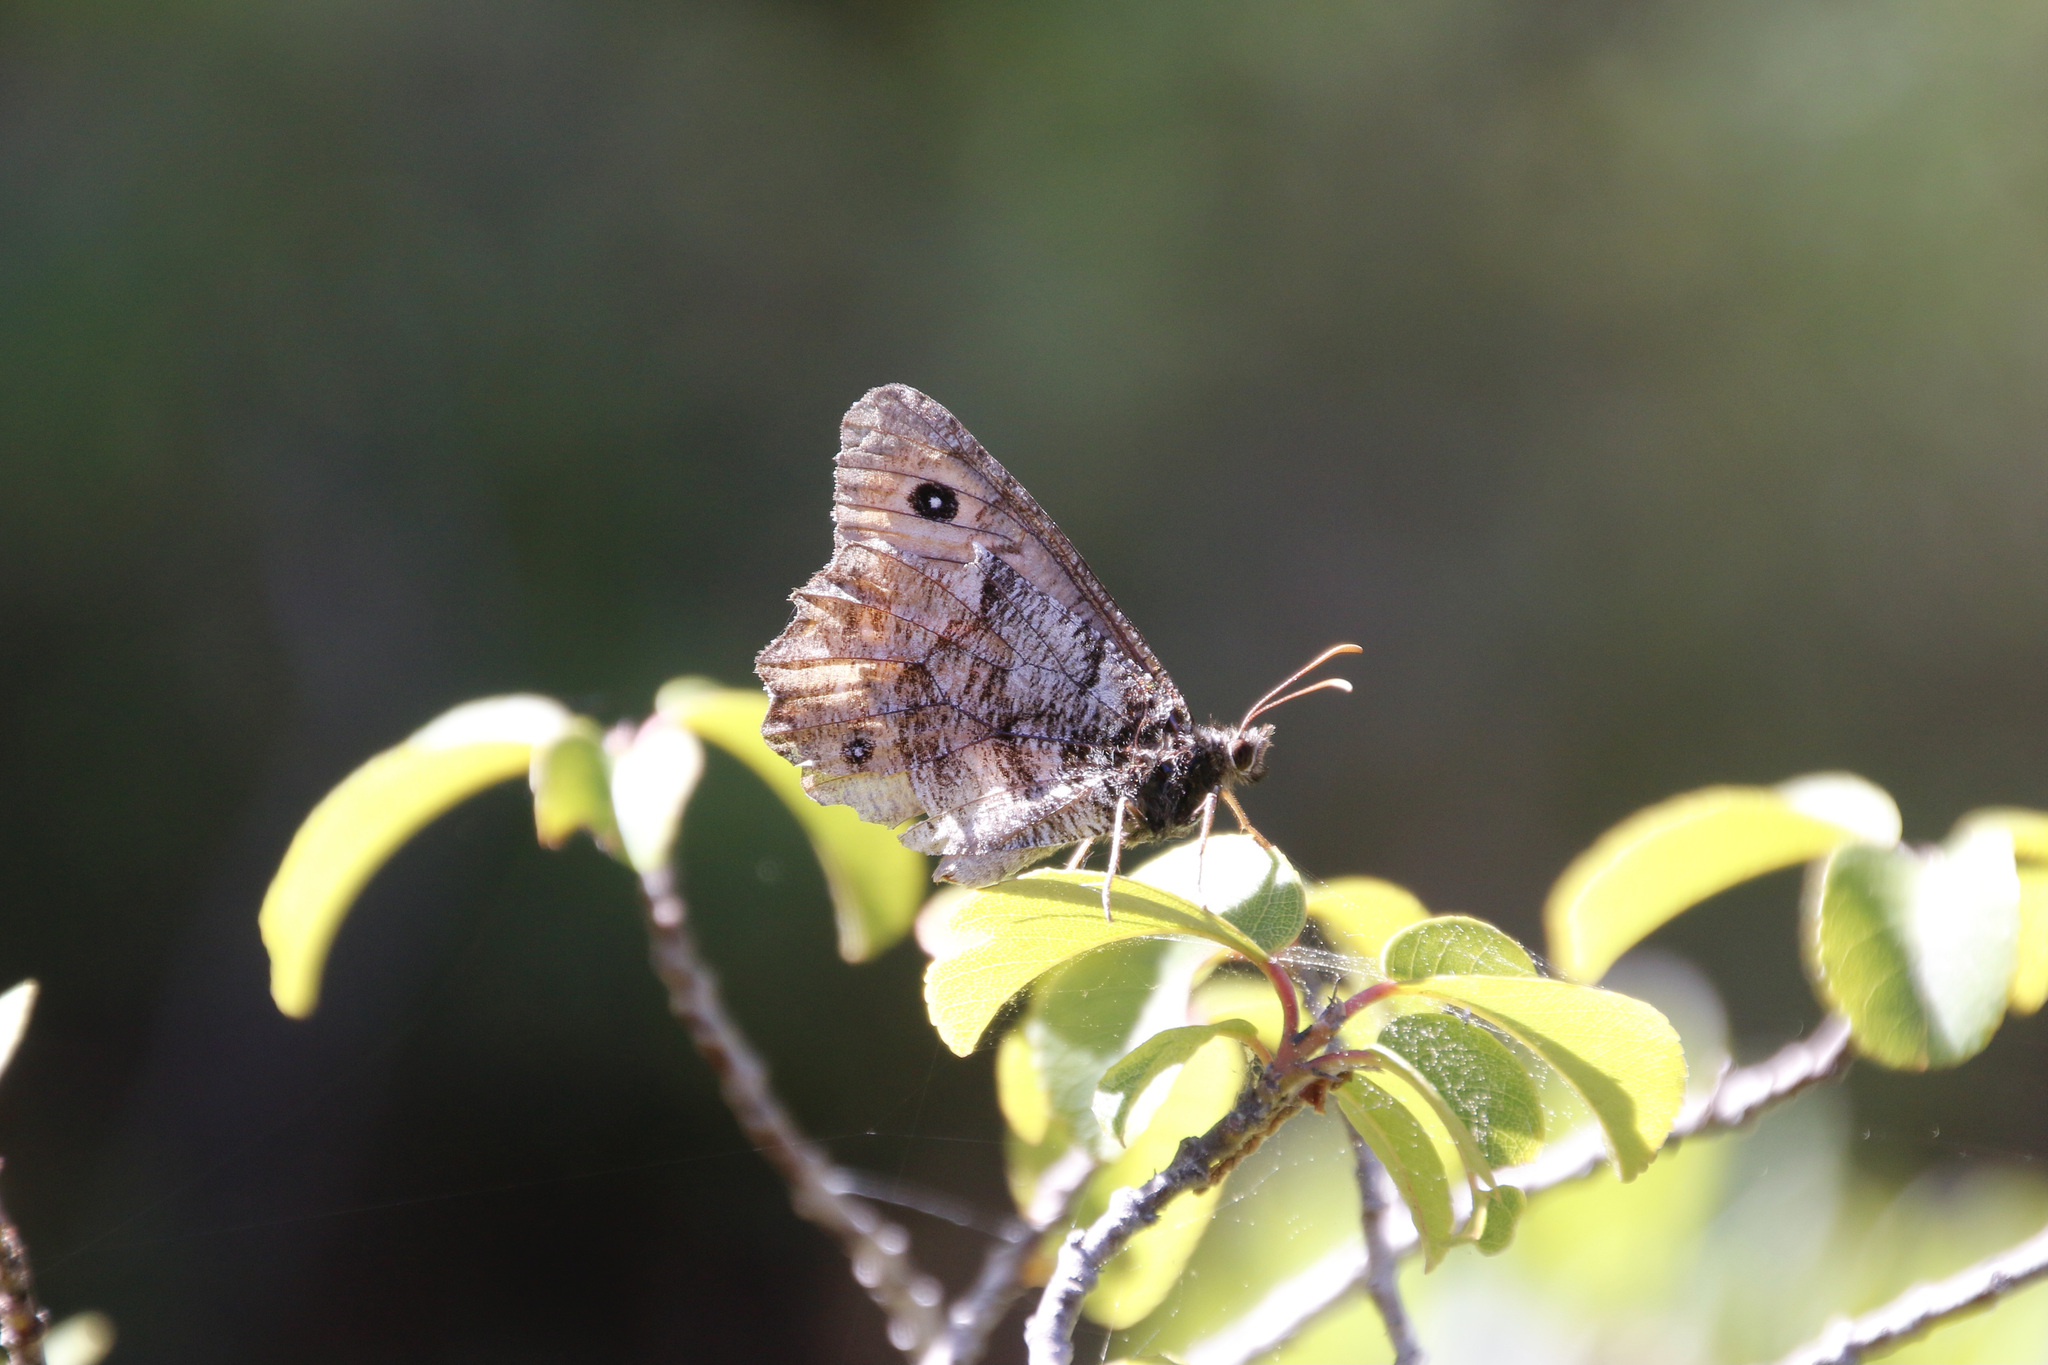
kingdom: Animalia
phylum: Arthropoda
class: Insecta
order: Lepidoptera
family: Nymphalidae
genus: Oeneis
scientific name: Oeneis nevadensis
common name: Great arctic
